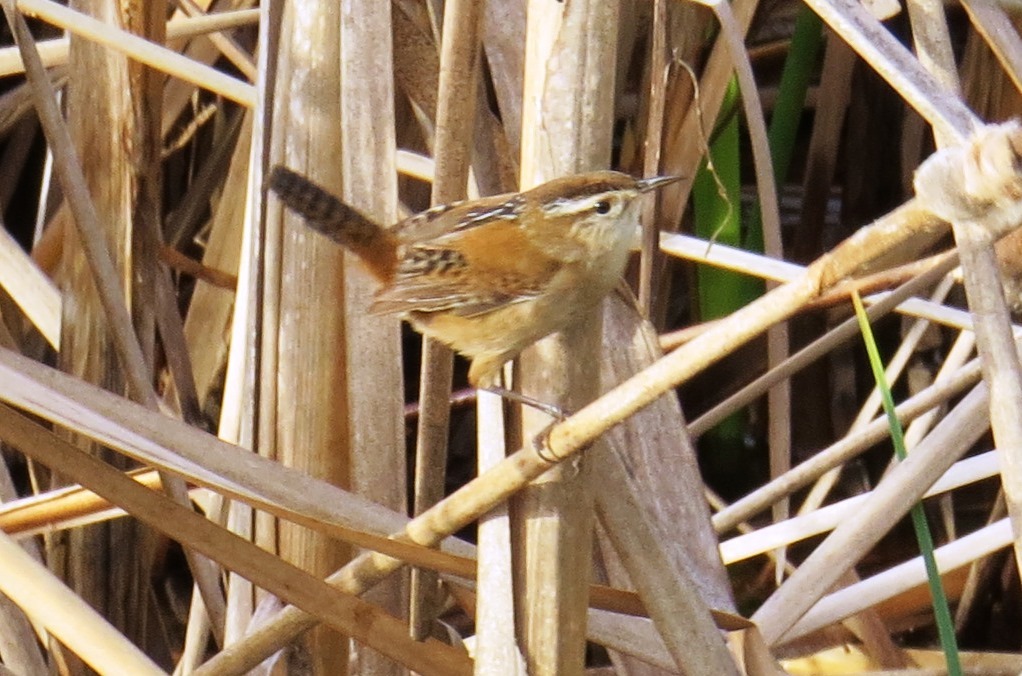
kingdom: Animalia
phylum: Chordata
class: Aves
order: Passeriformes
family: Troglodytidae
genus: Cistothorus
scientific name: Cistothorus palustris
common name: Marsh wren
